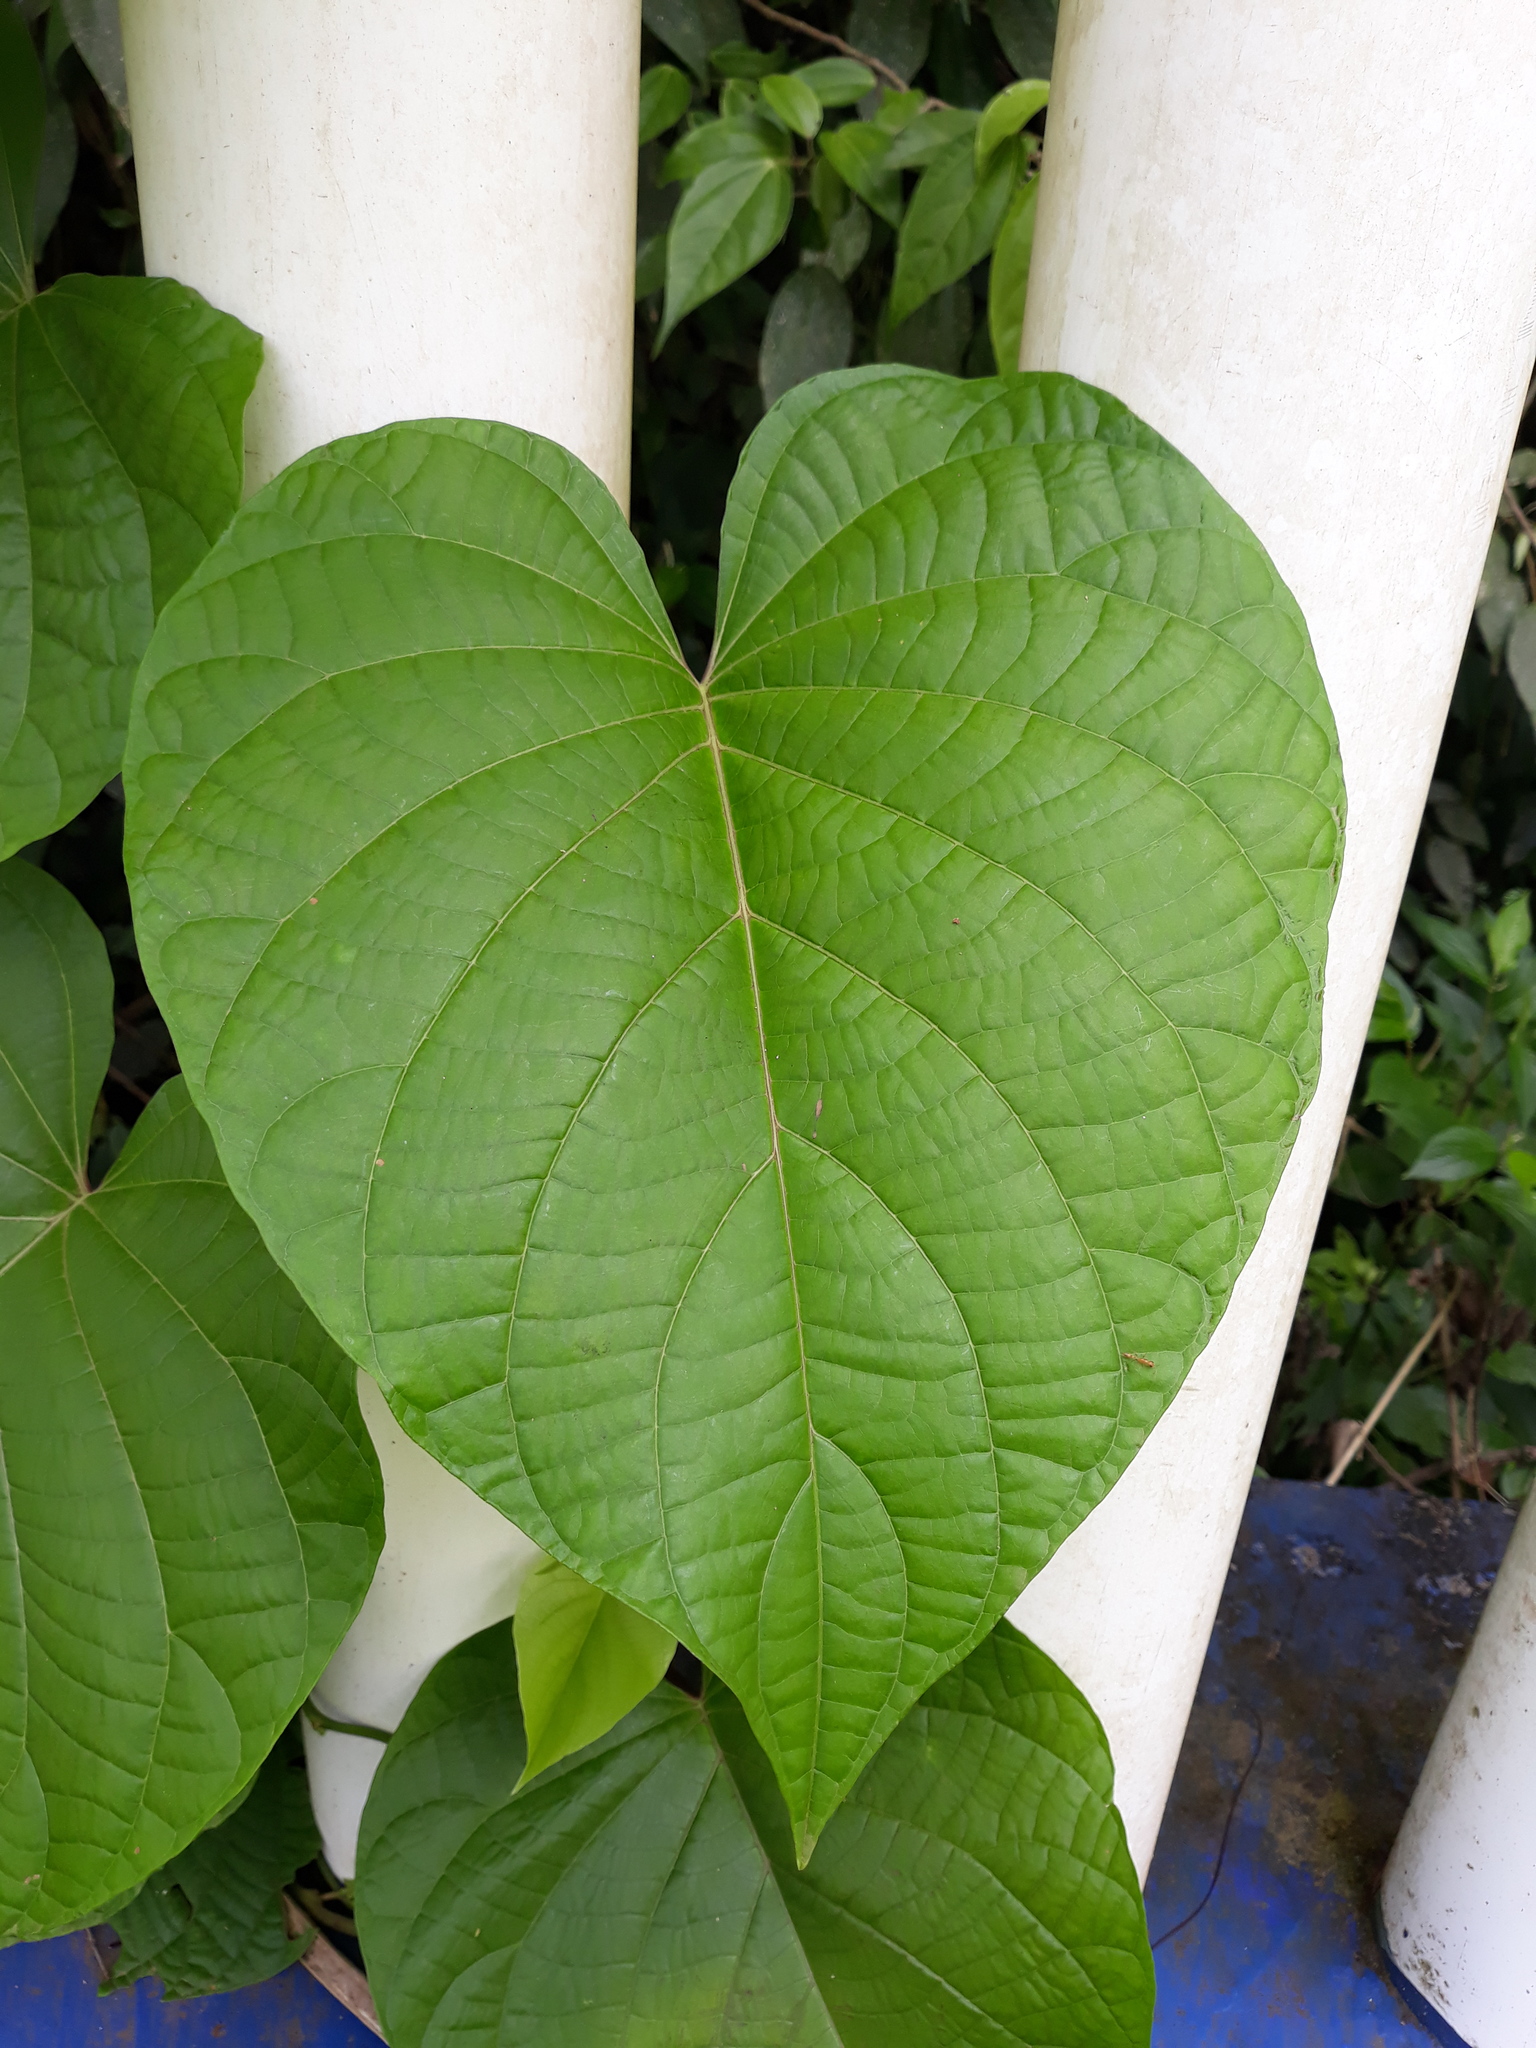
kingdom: Plantae
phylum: Tracheophyta
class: Liliopsida
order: Dioscoreales
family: Dioscoreaceae
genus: Dioscorea
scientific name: Dioscorea composita
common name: Barbasco
